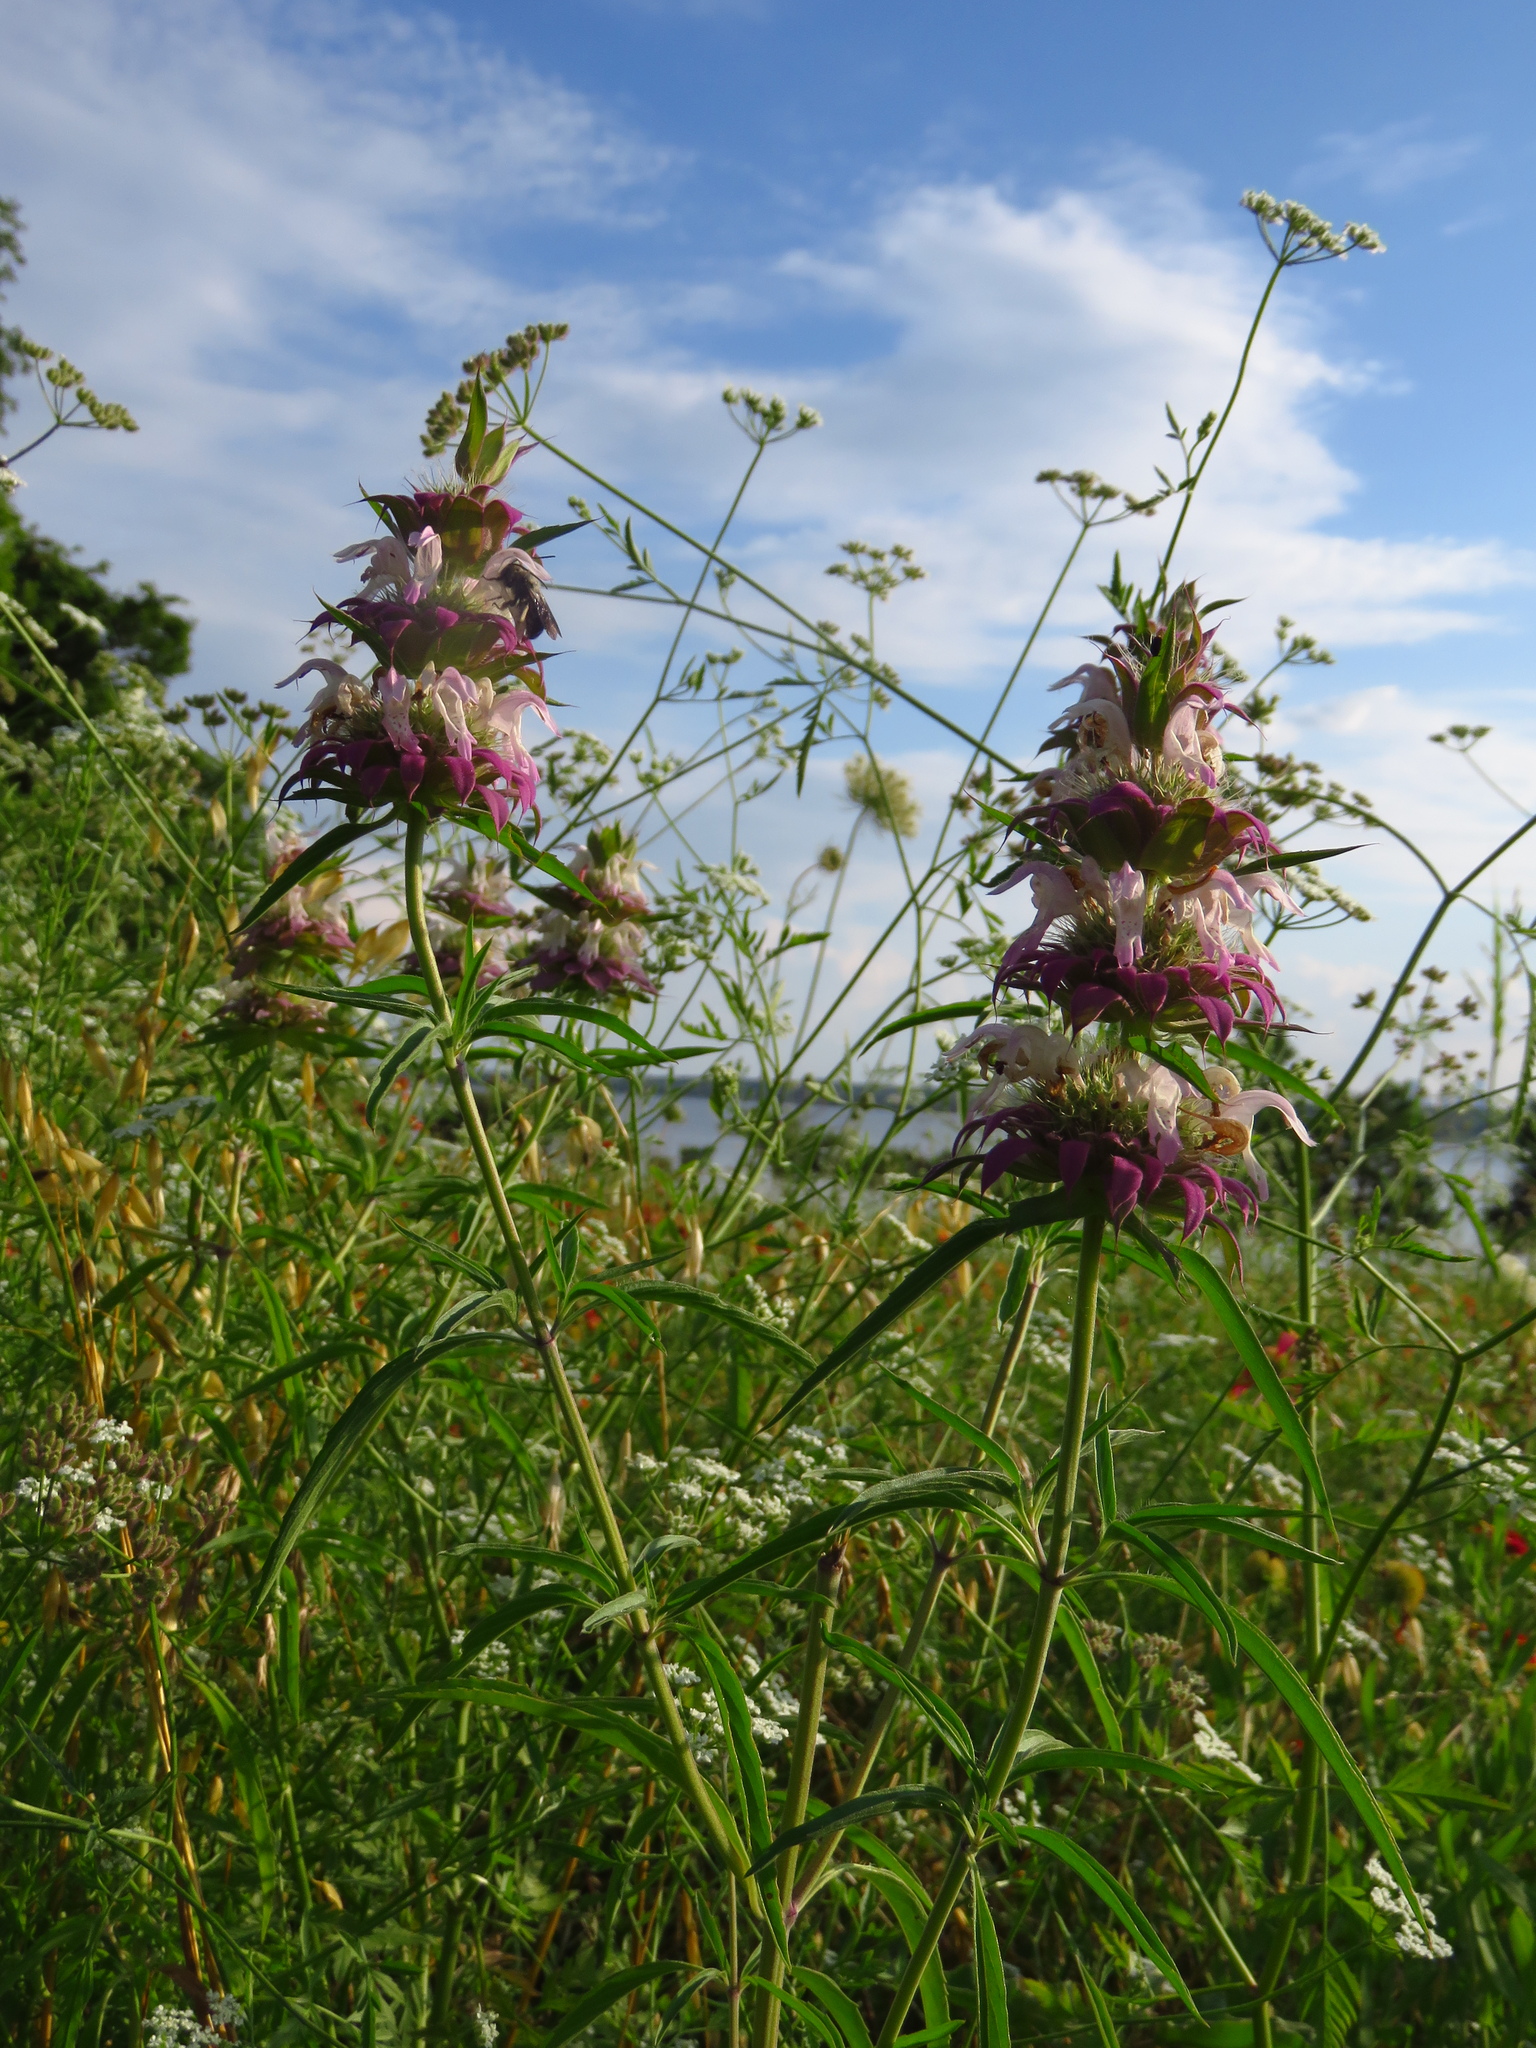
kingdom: Plantae
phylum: Tracheophyta
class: Magnoliopsida
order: Lamiales
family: Lamiaceae
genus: Monarda
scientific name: Monarda citriodora
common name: Lemon beebalm
